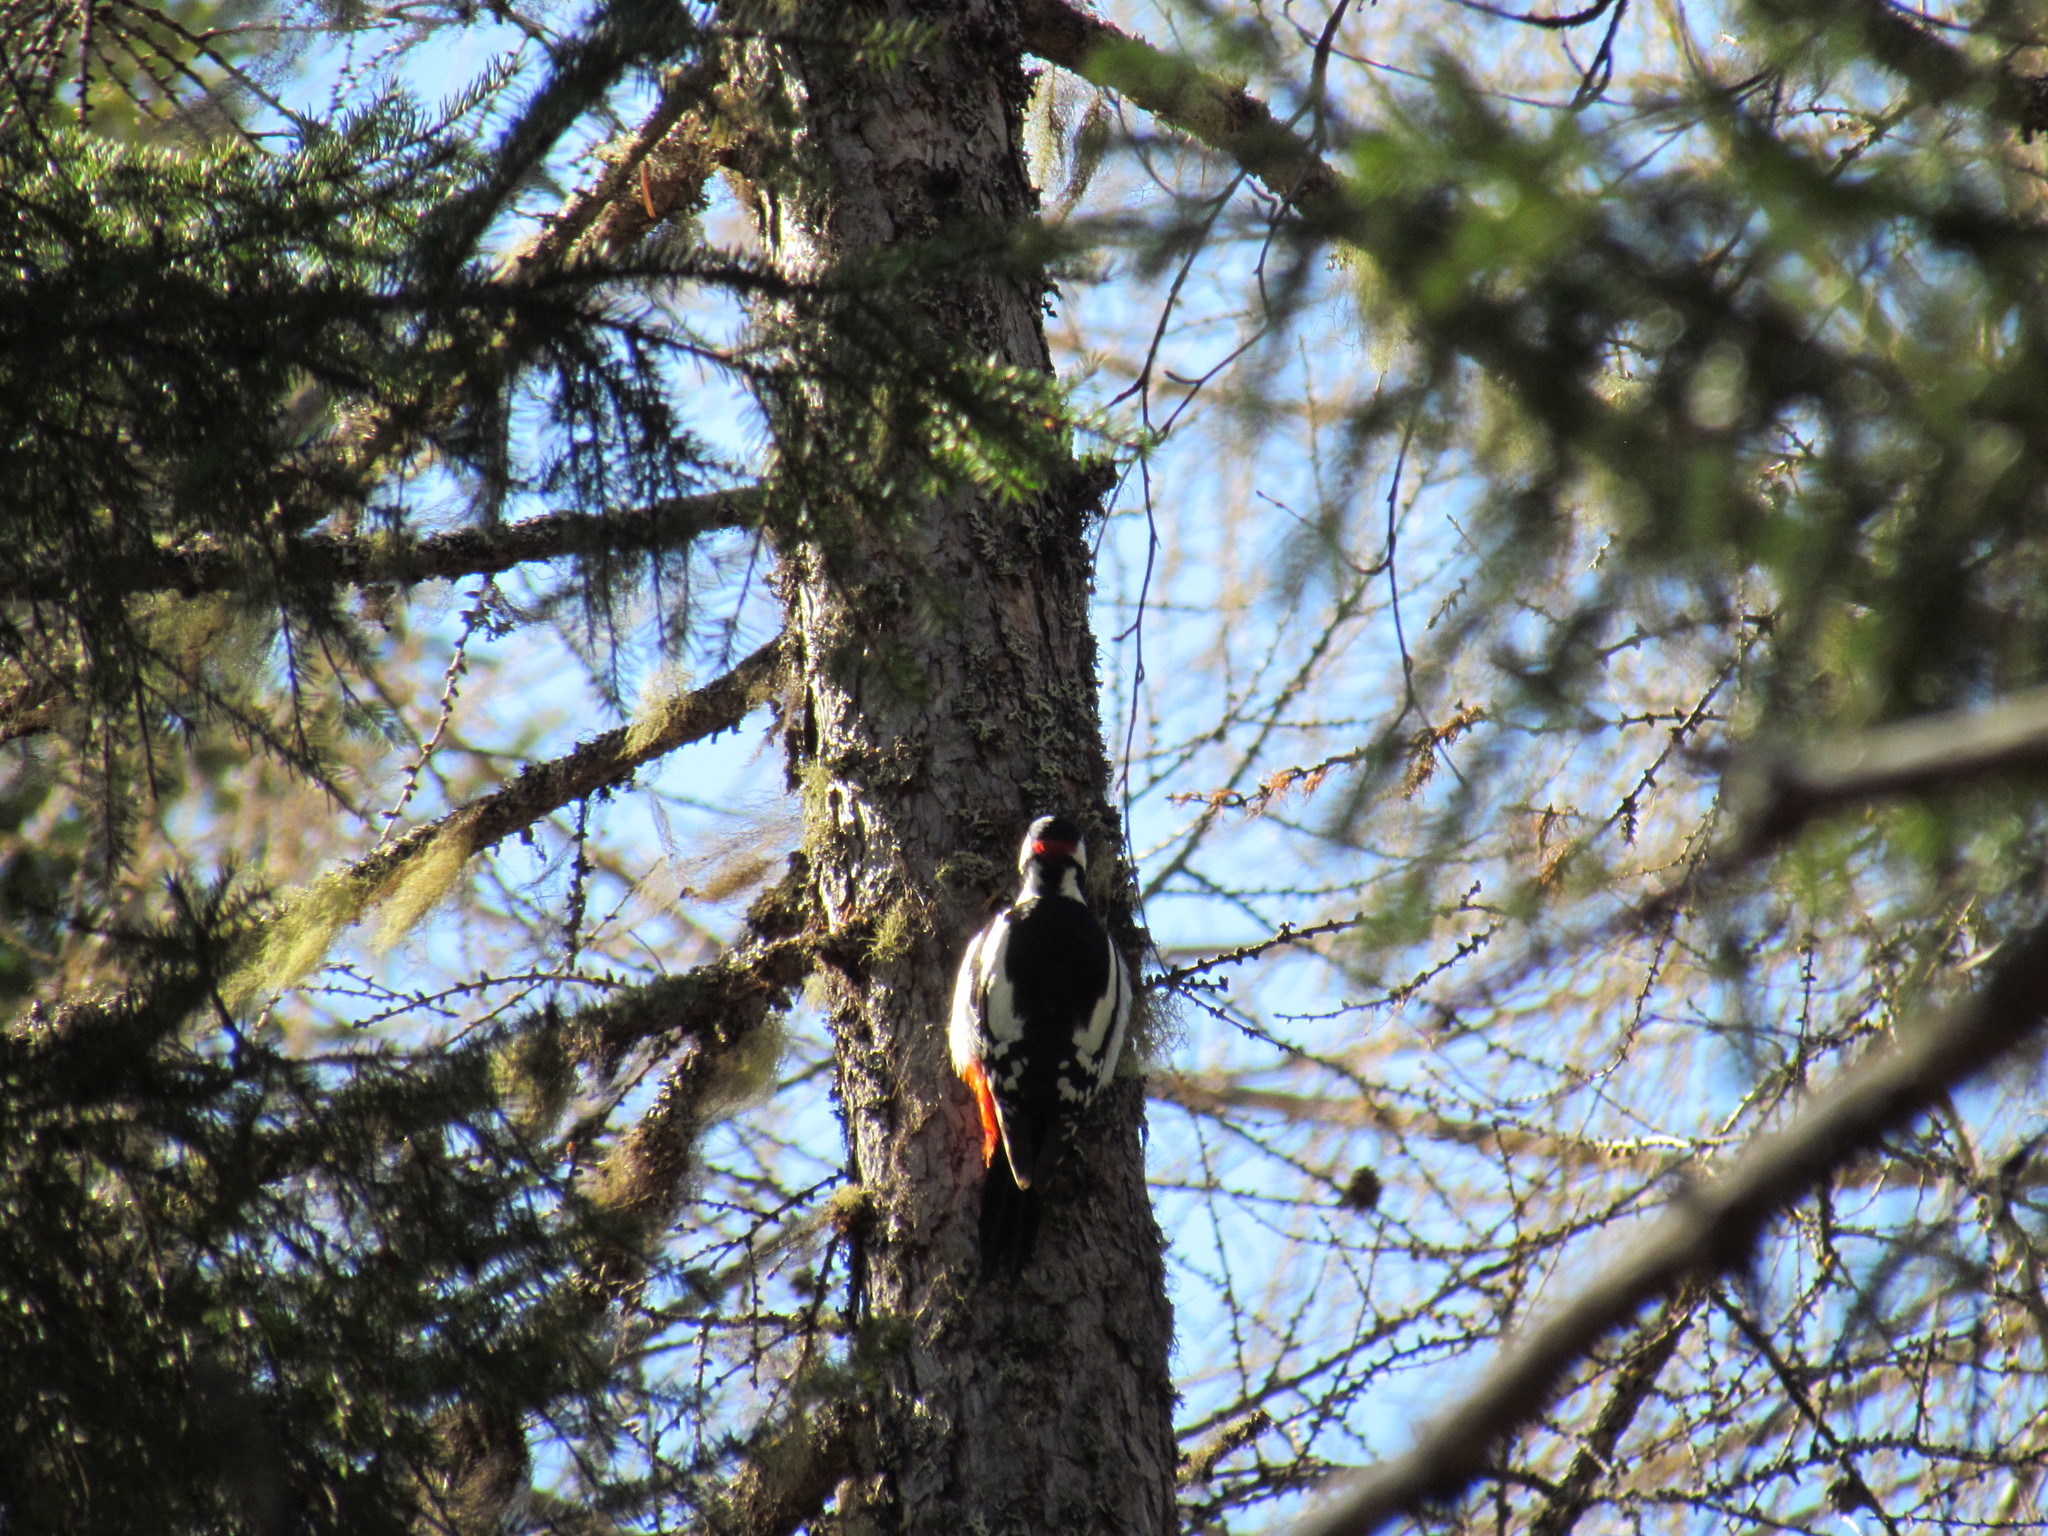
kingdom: Animalia
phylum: Chordata
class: Aves
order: Piciformes
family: Picidae
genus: Dendrocopos
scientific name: Dendrocopos major
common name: Great spotted woodpecker
